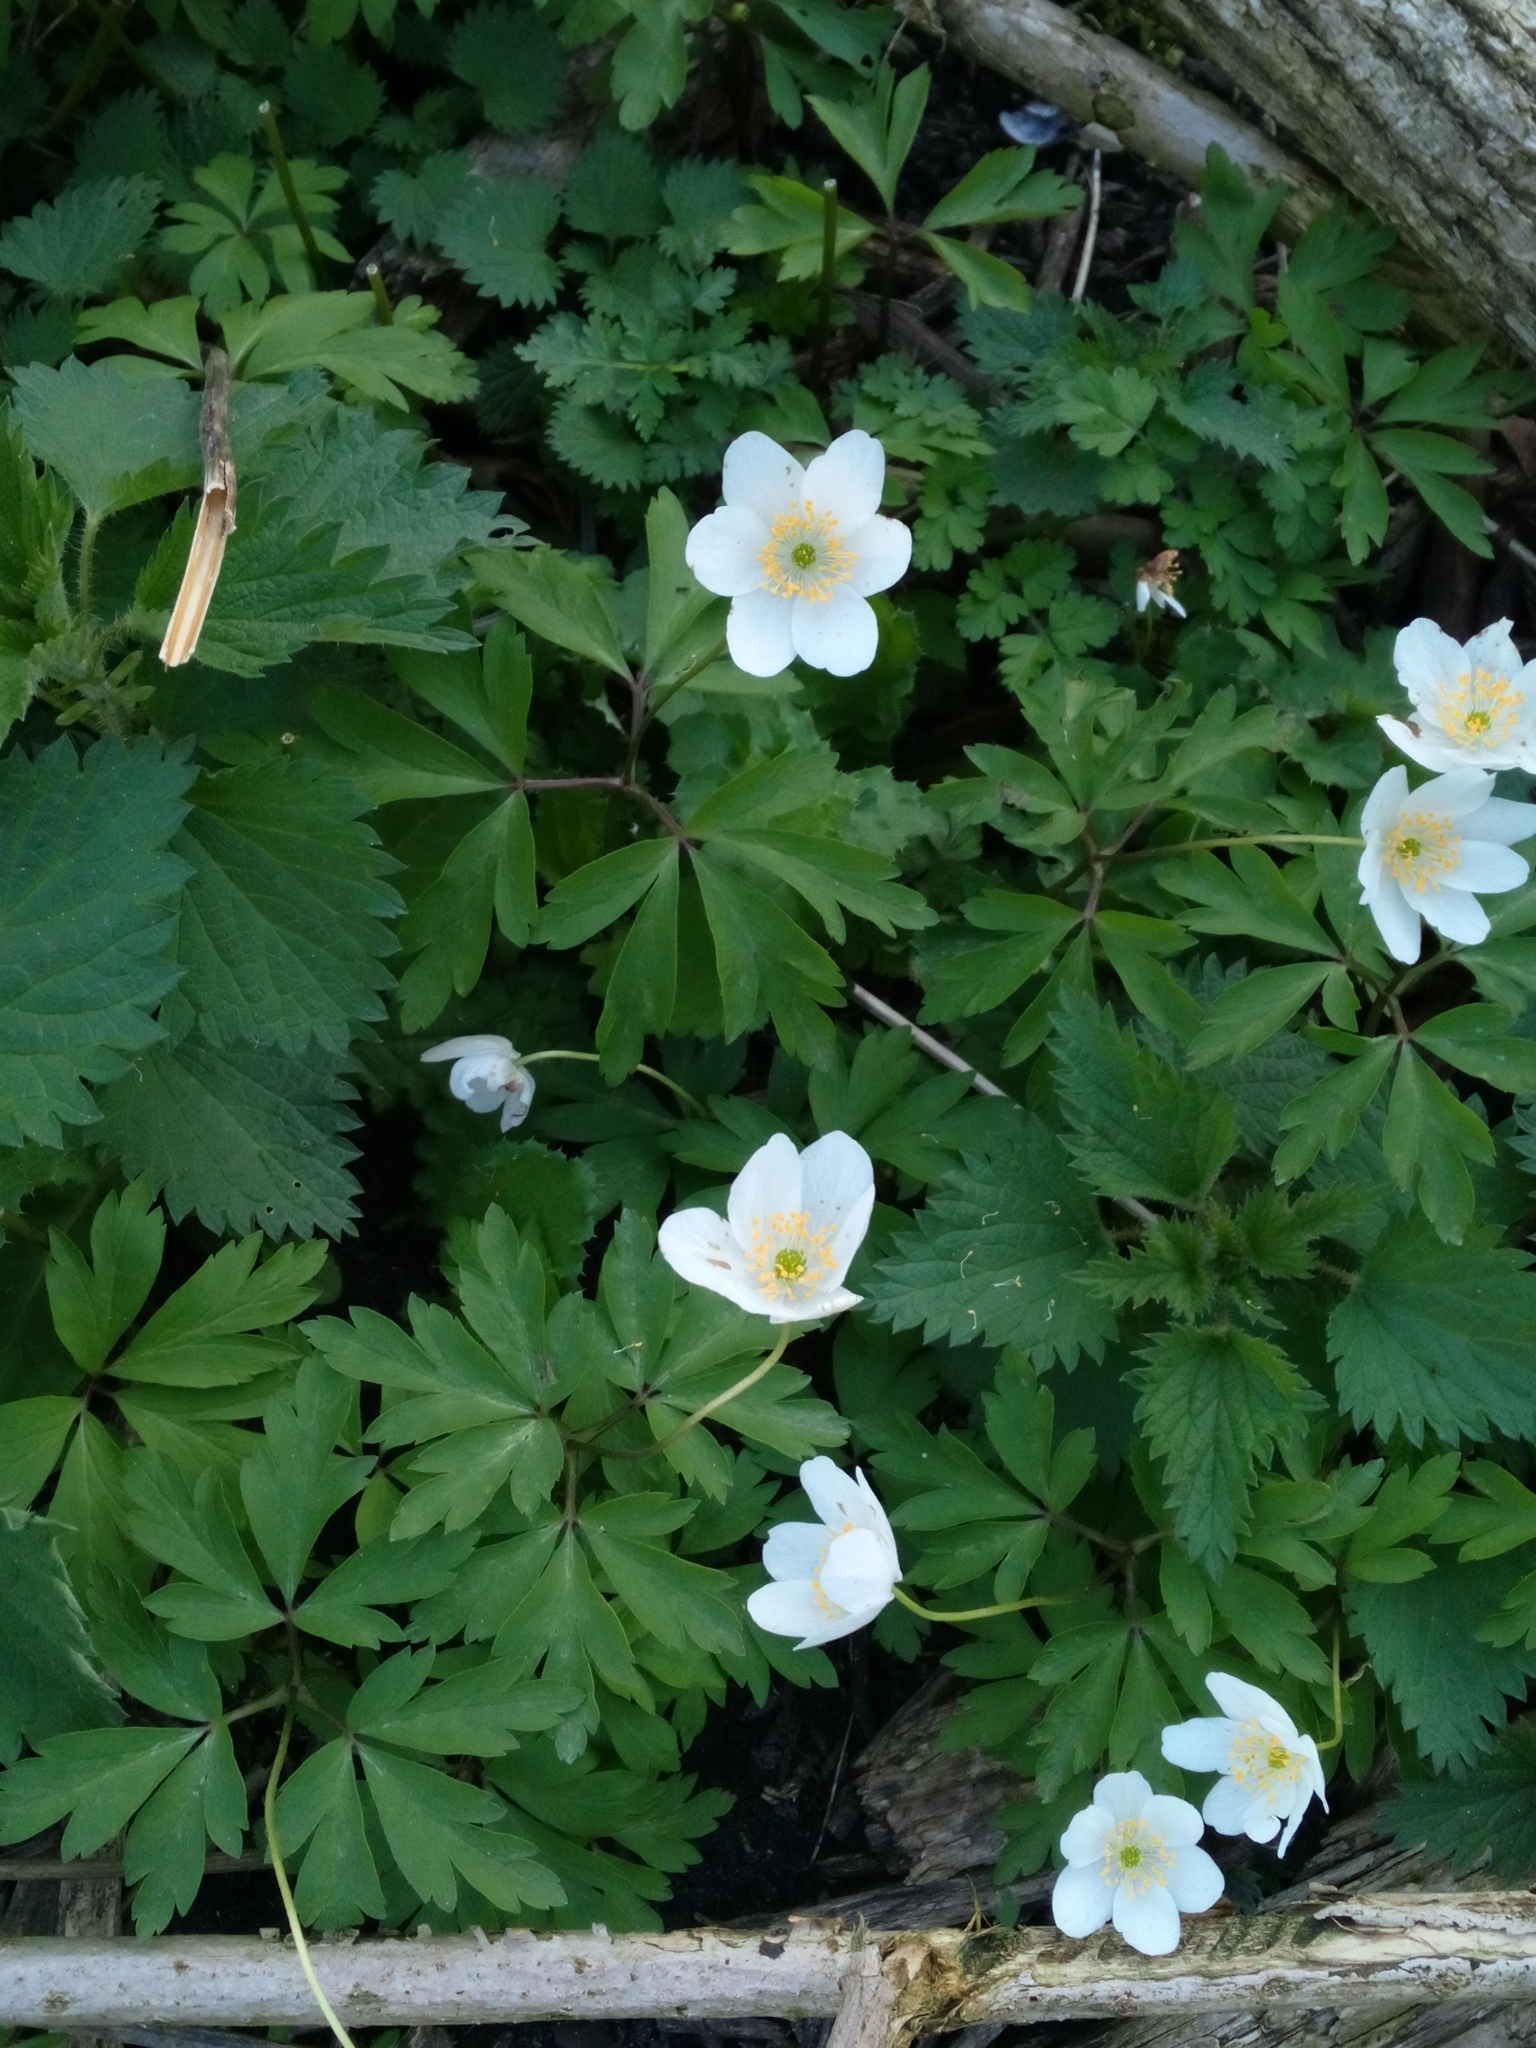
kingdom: Plantae
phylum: Tracheophyta
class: Magnoliopsida
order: Ranunculales
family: Ranunculaceae
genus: Anemone
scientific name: Anemone nemorosa
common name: Wood anemone
